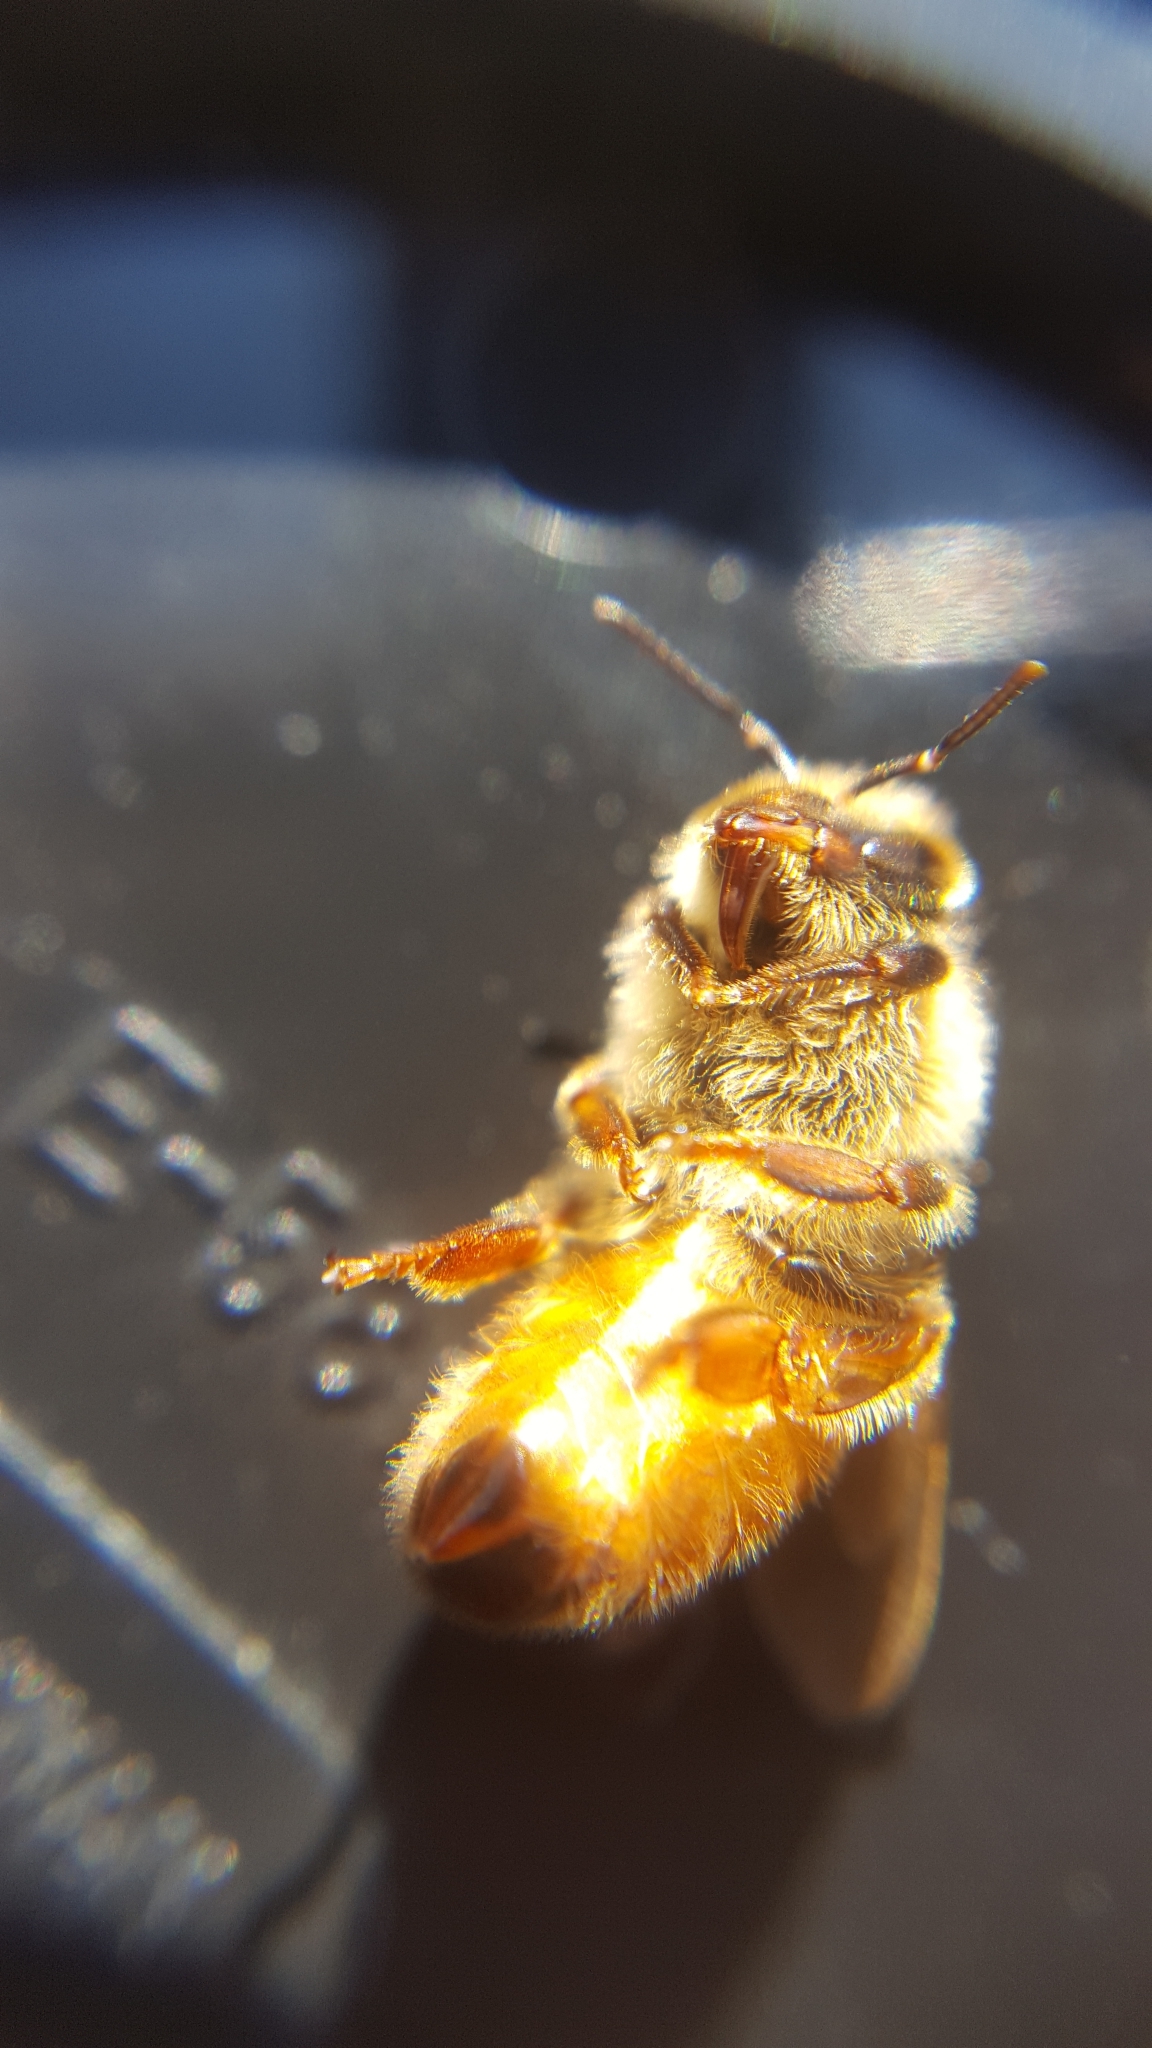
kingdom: Animalia
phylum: Arthropoda
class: Insecta
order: Hymenoptera
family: Apidae
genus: Apis
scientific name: Apis mellifera
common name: Honey bee
